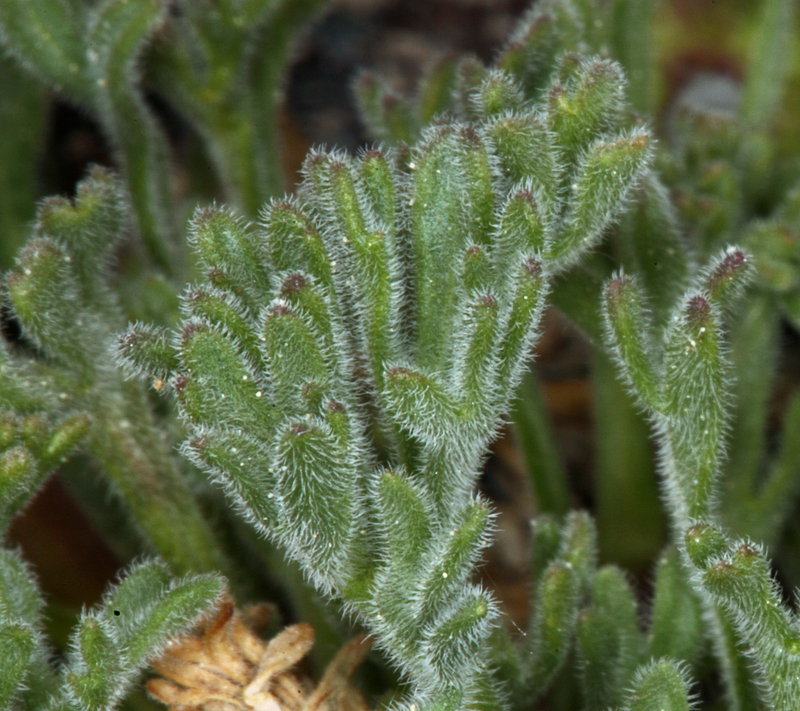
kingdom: Plantae
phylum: Tracheophyta
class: Magnoliopsida
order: Asterales
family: Asteraceae
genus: Erigeron
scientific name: Erigeron compositus
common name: Dwarf mountain fleabane
